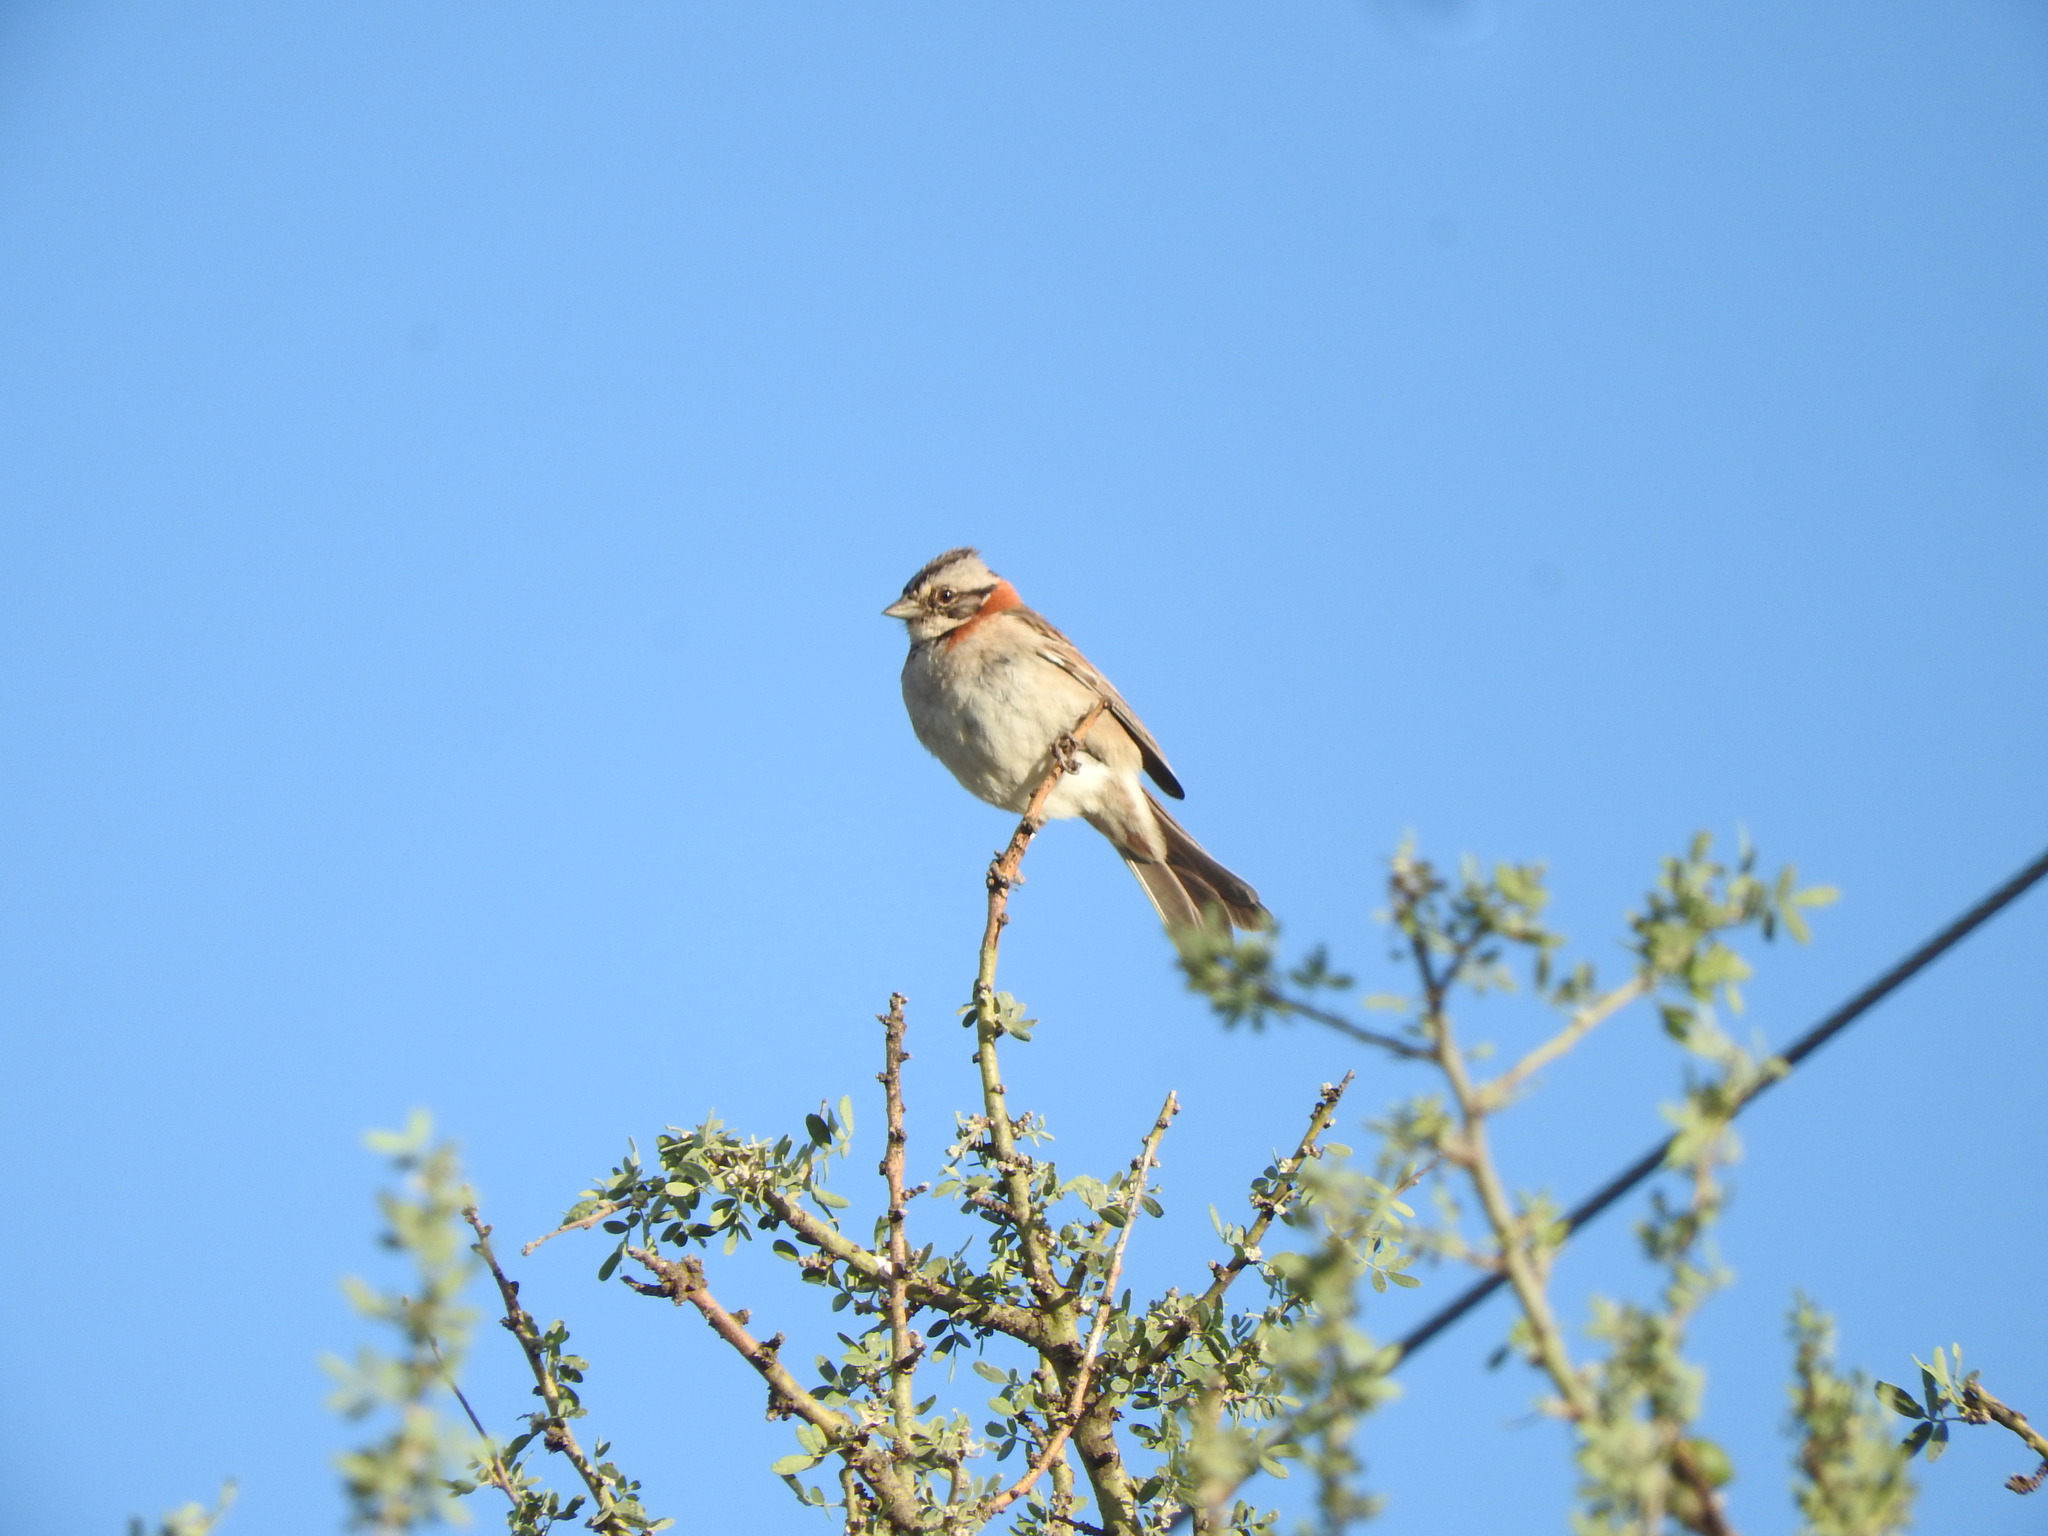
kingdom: Animalia
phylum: Chordata
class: Aves
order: Passeriformes
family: Passerellidae
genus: Zonotrichia
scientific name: Zonotrichia capensis
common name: Rufous-collared sparrow
